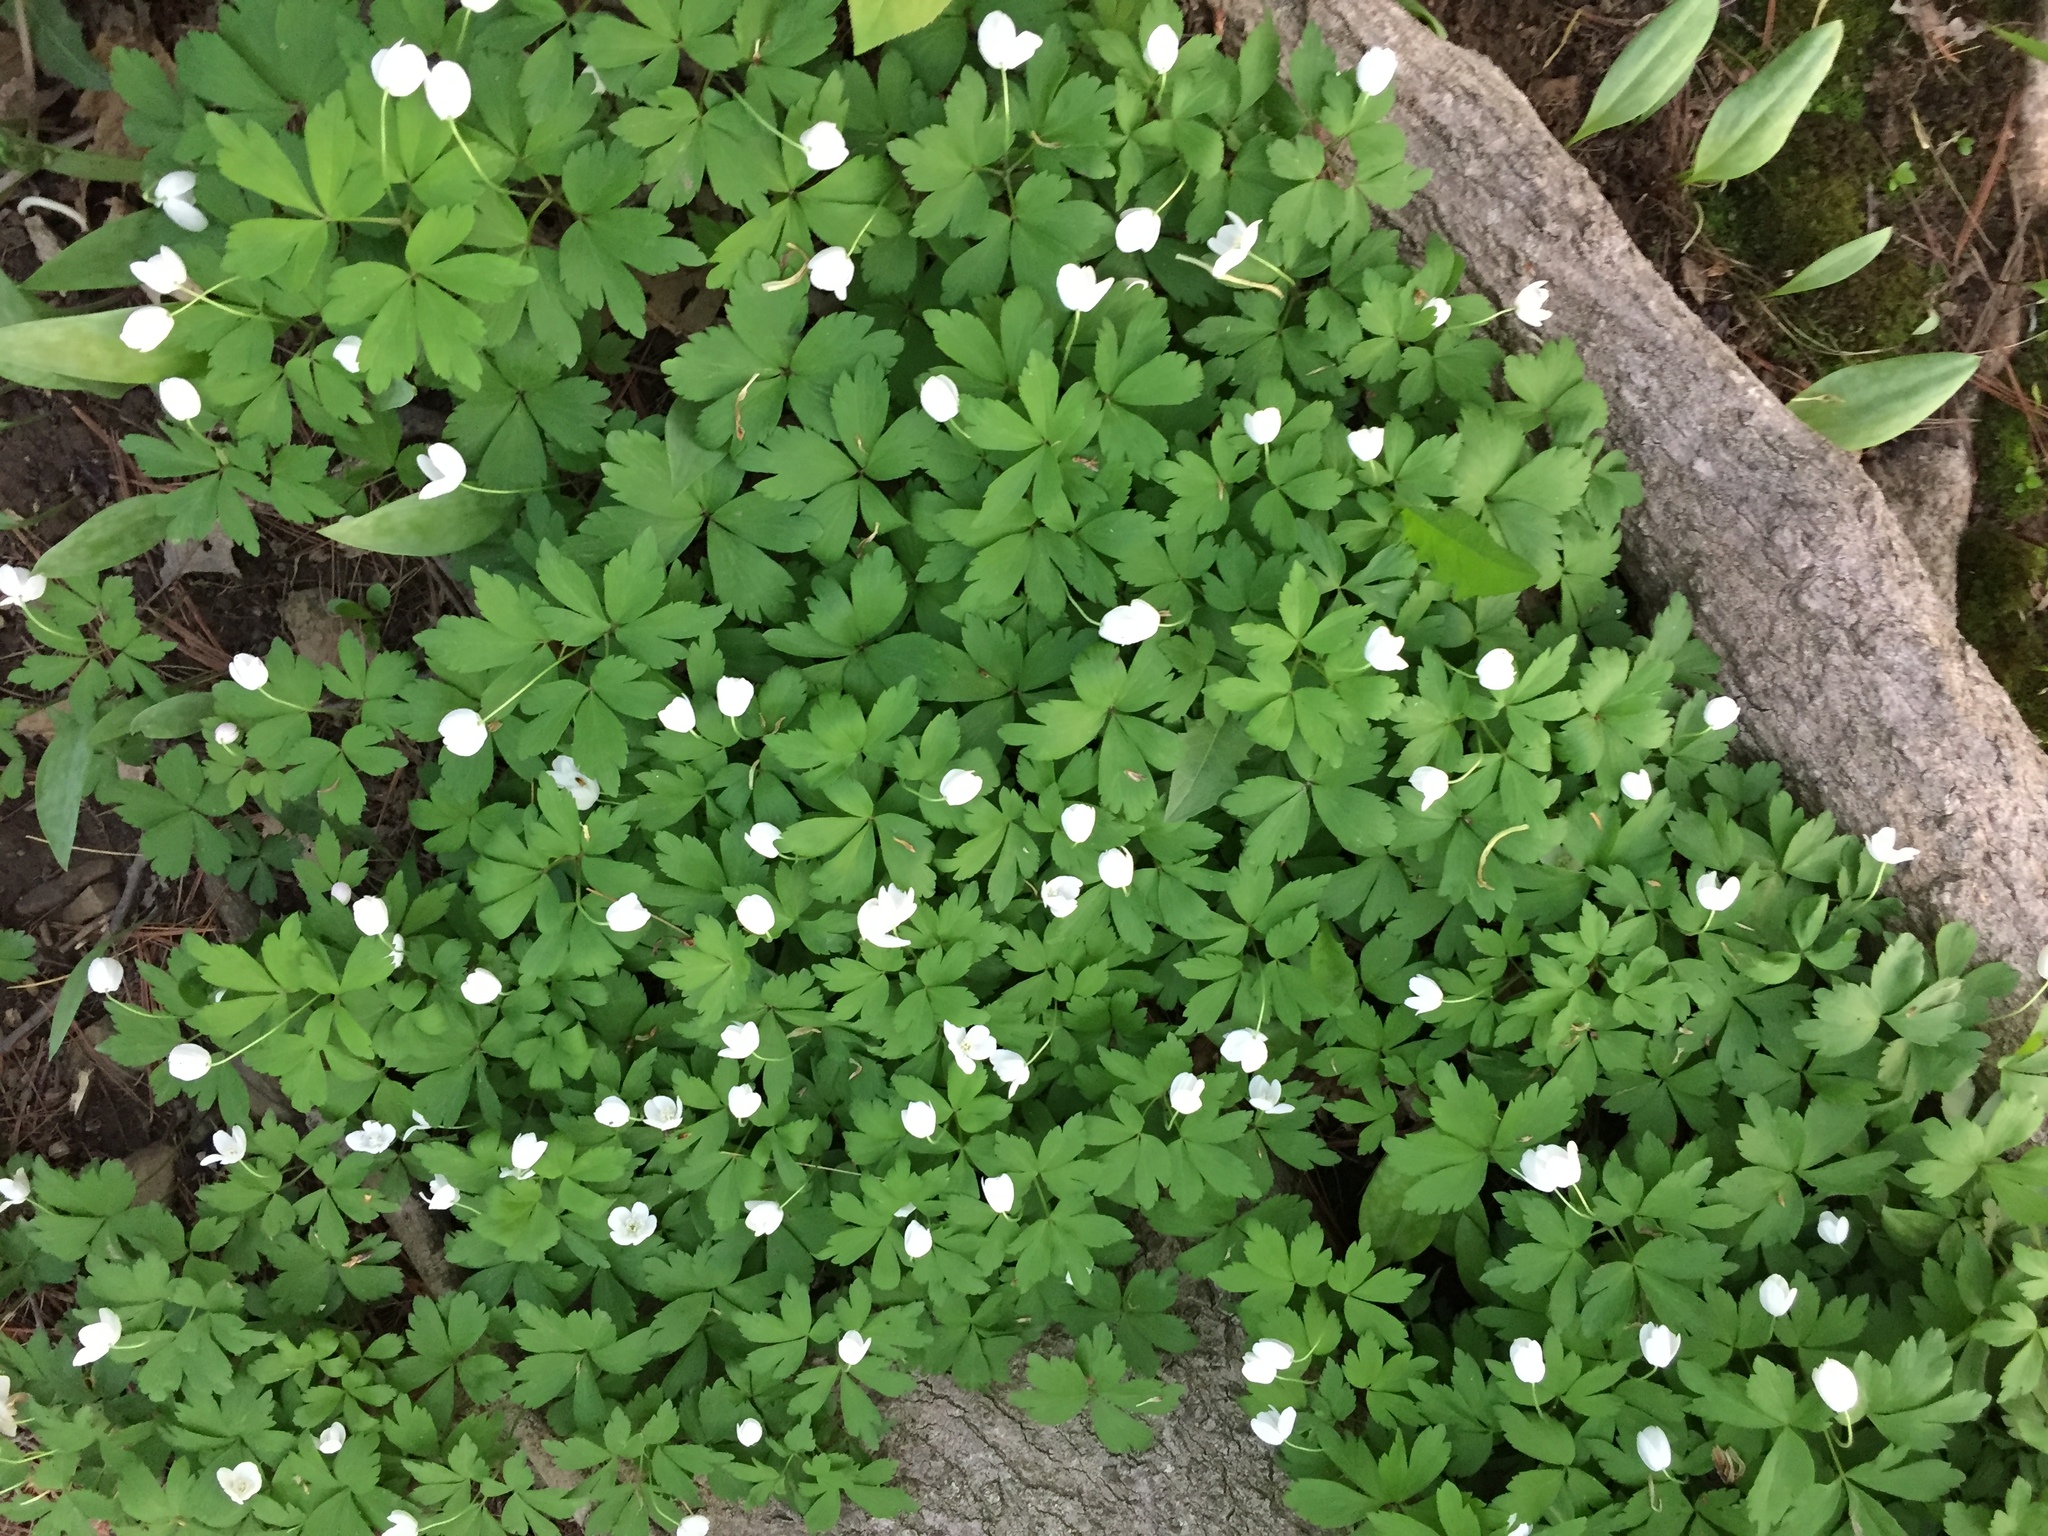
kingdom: Plantae
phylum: Tracheophyta
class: Magnoliopsida
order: Ranunculales
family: Ranunculaceae
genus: Anemone
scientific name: Anemone quinquefolia
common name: Wood anemone
